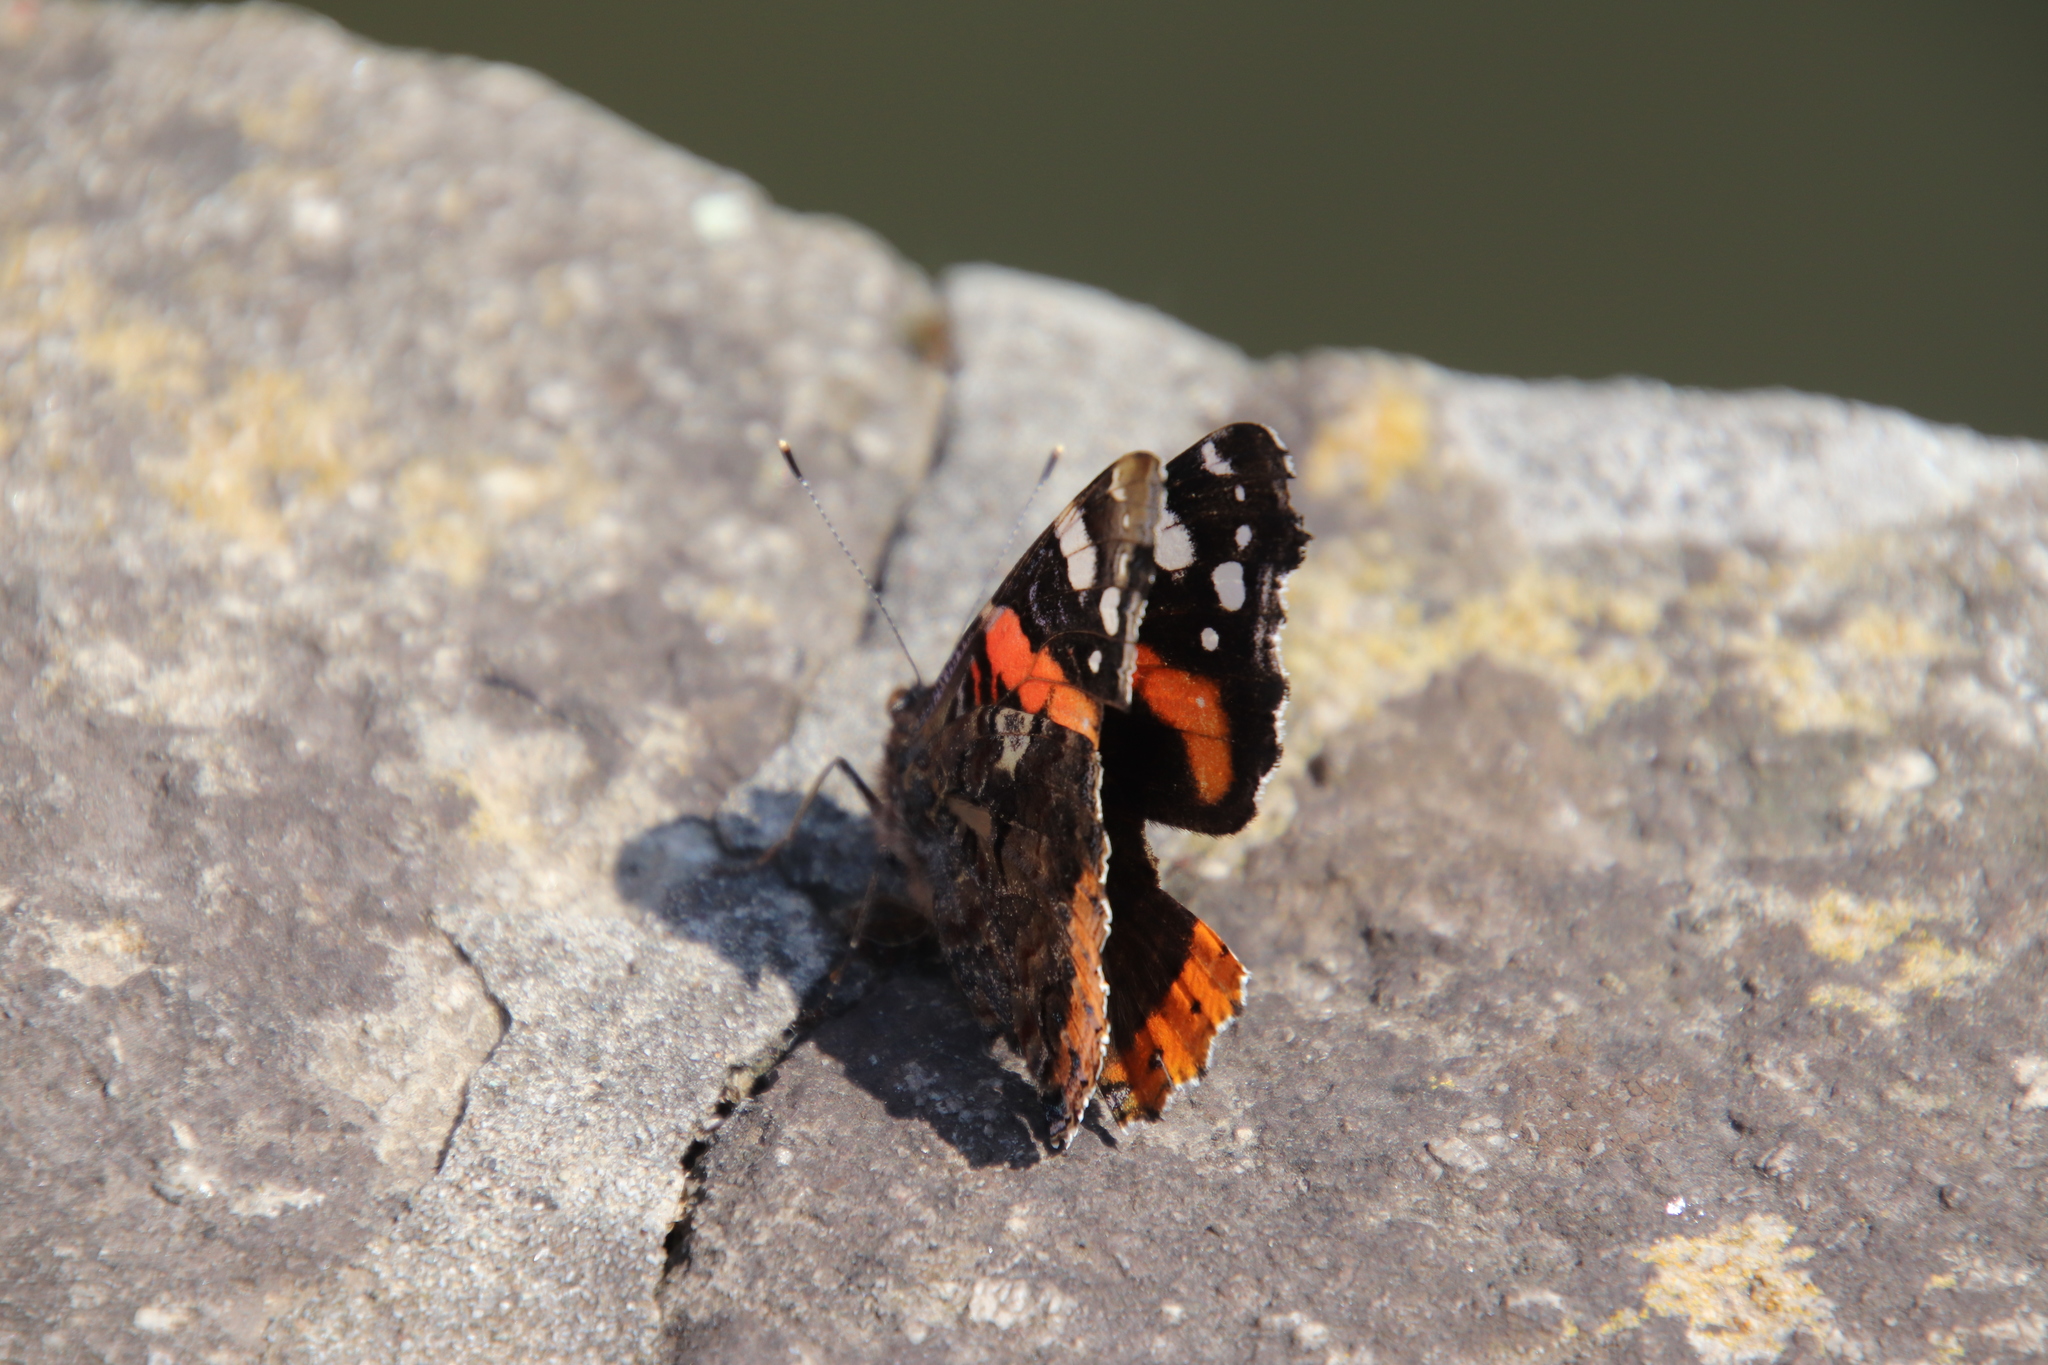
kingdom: Animalia
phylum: Arthropoda
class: Insecta
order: Lepidoptera
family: Nymphalidae
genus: Vanessa
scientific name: Vanessa atalanta
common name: Red admiral
